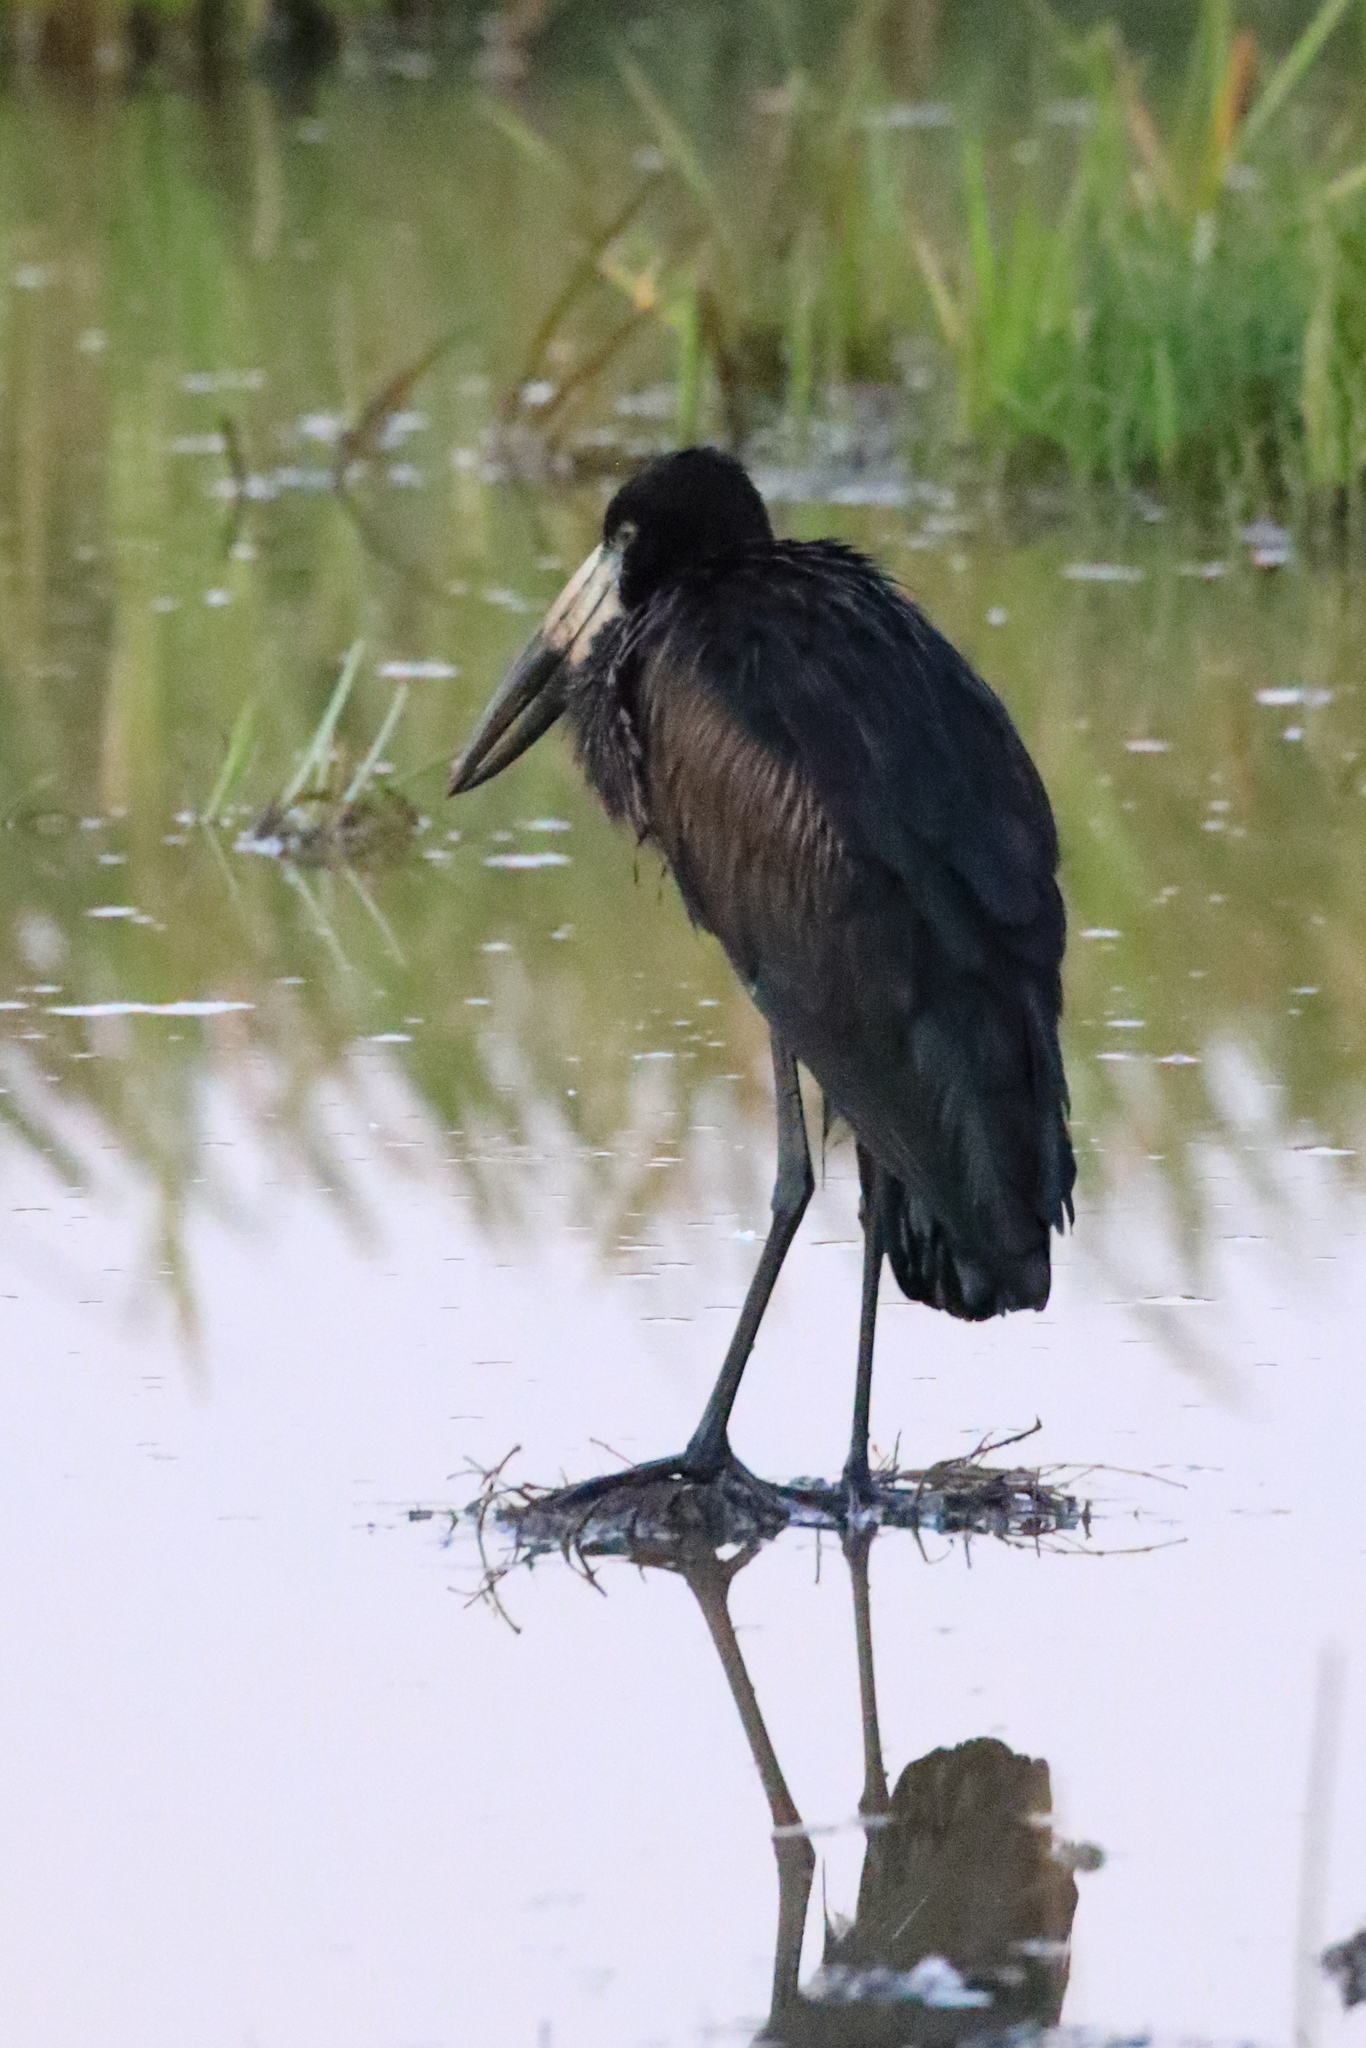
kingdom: Animalia
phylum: Chordata
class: Aves
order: Ciconiiformes
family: Ciconiidae
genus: Anastomus
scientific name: Anastomus lamelligerus
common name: African openbill
